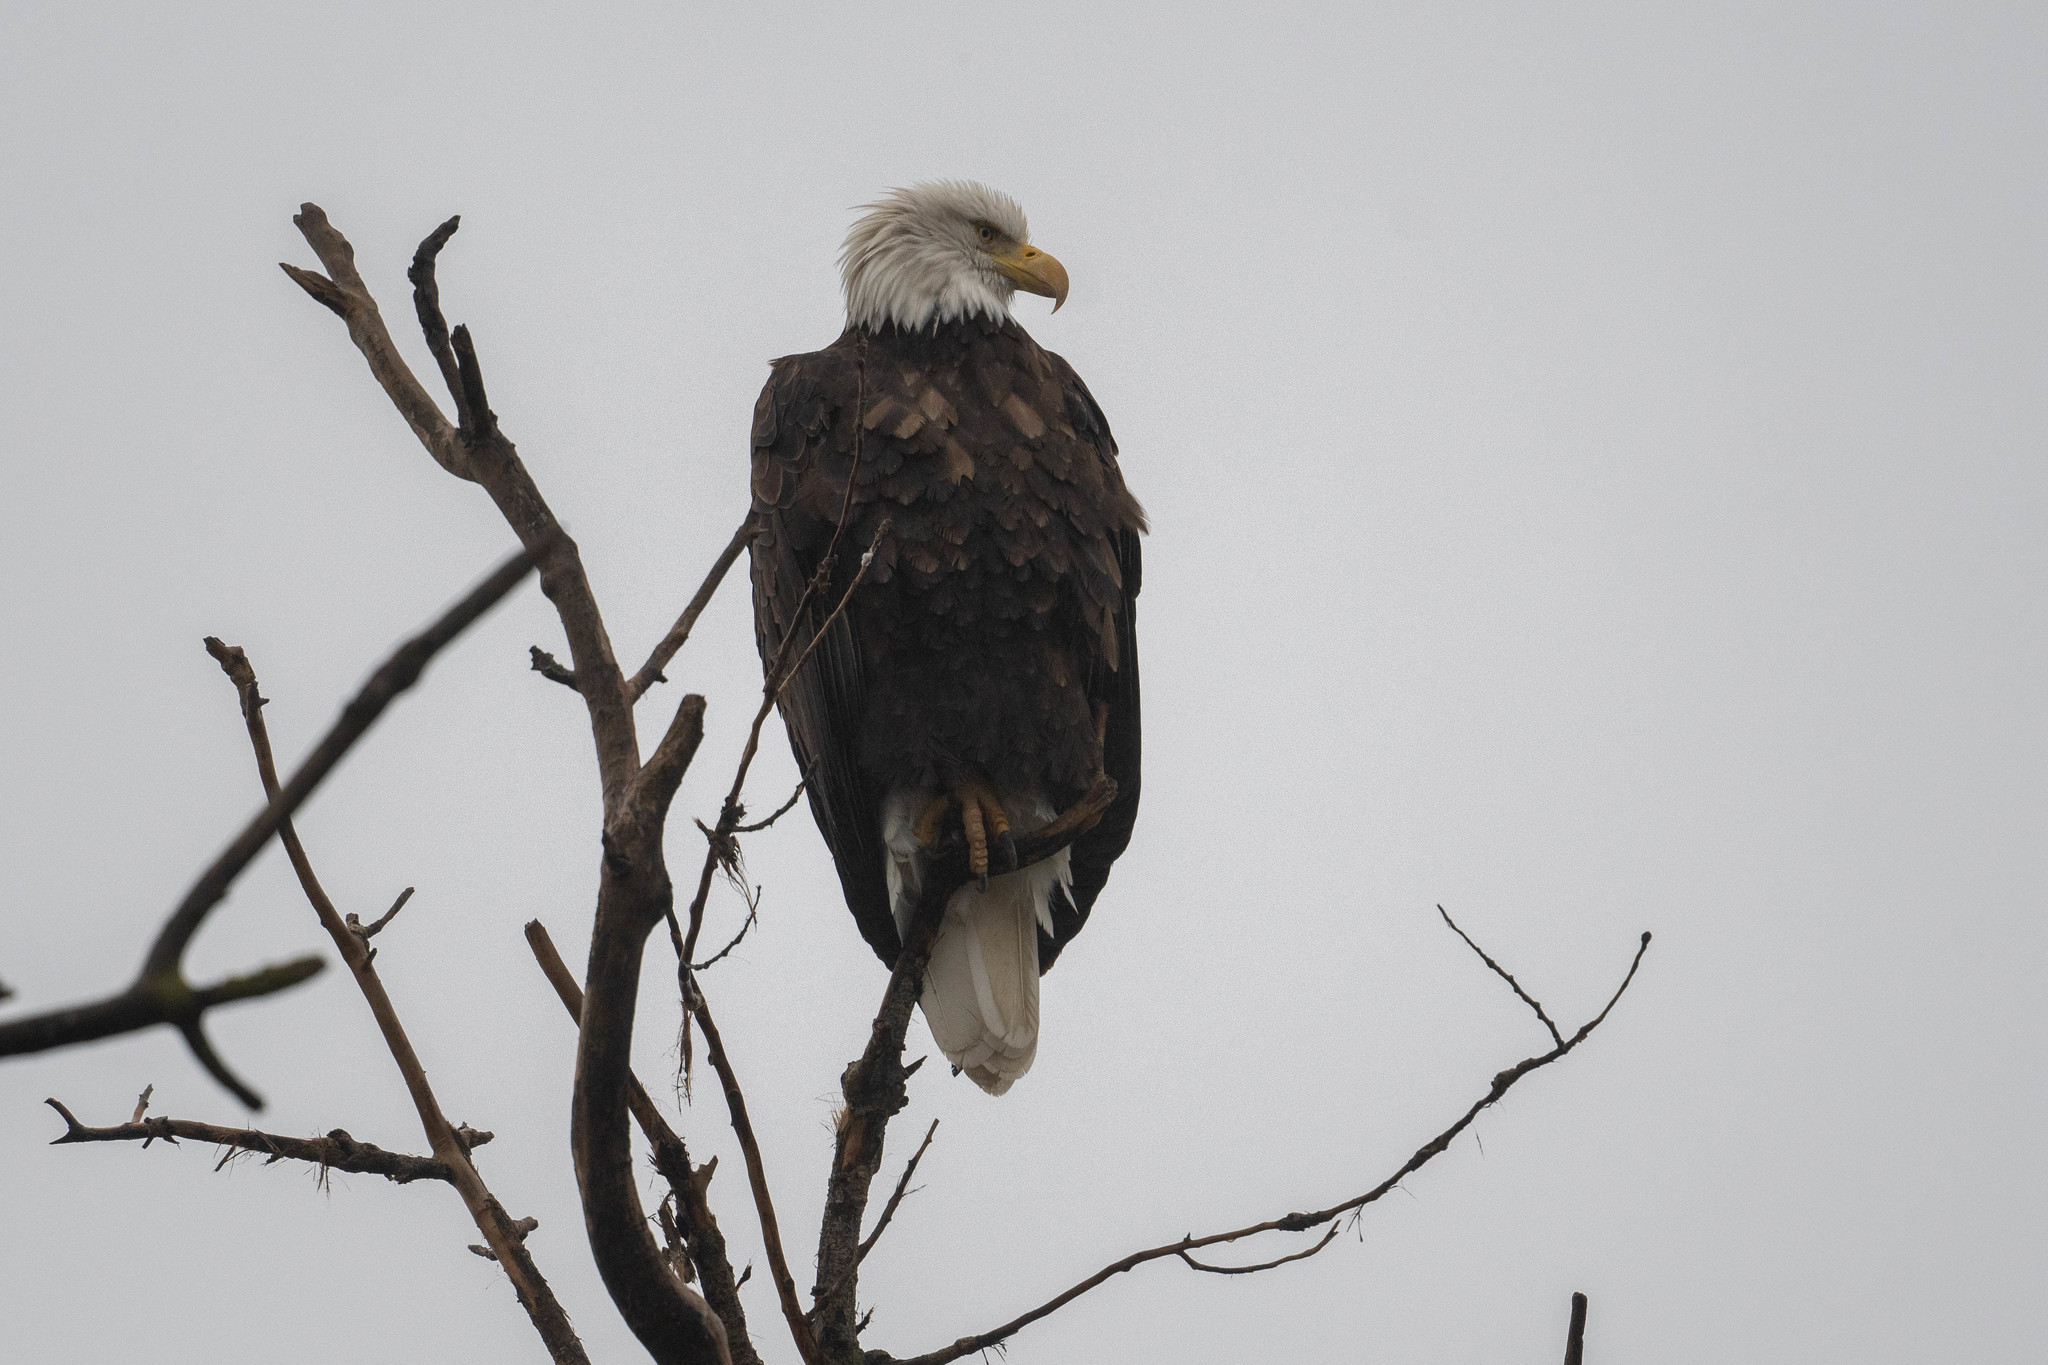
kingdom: Animalia
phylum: Chordata
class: Aves
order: Accipitriformes
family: Accipitridae
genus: Haliaeetus
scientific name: Haliaeetus leucocephalus
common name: Bald eagle
